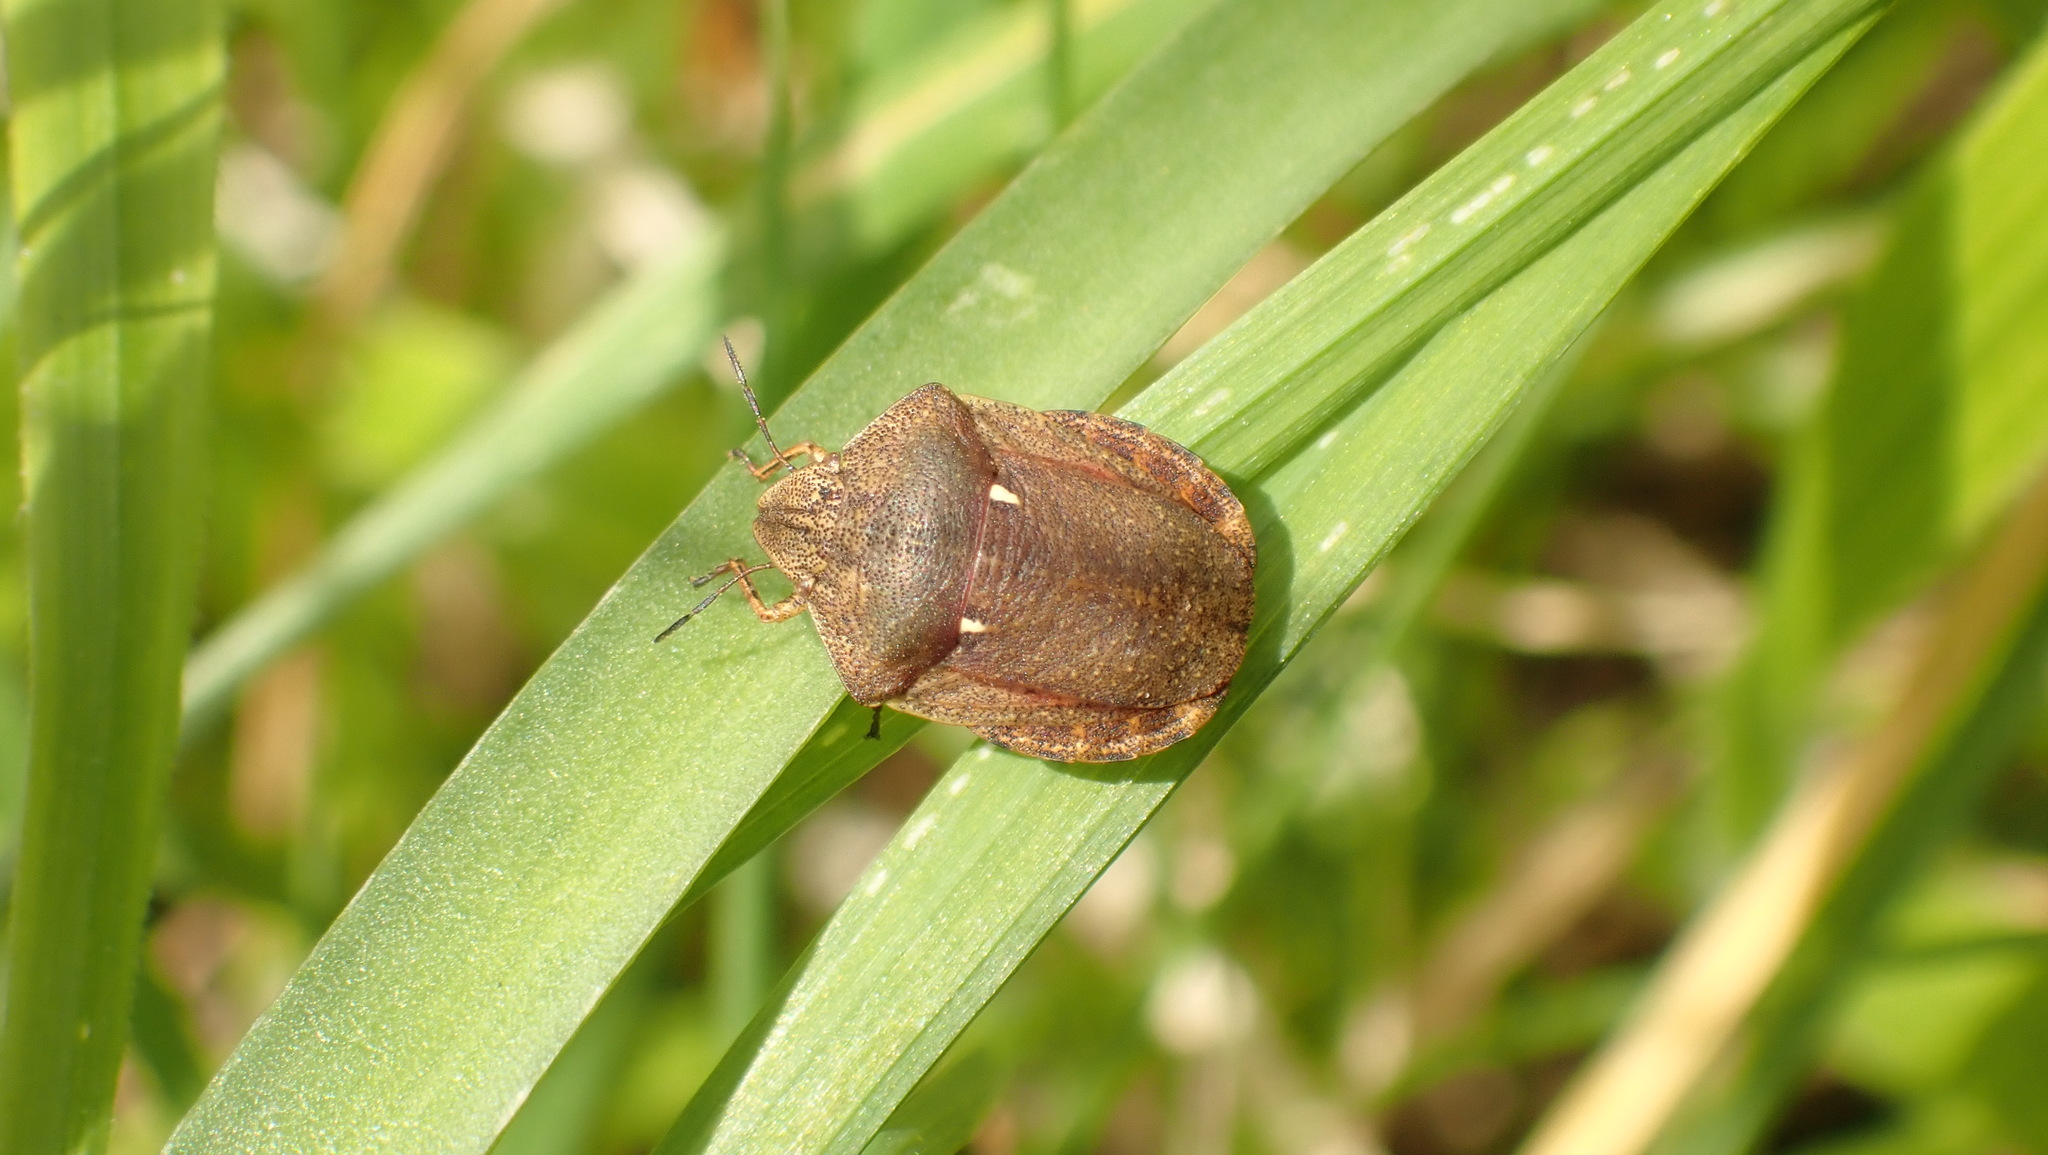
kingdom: Animalia
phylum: Arthropoda
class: Insecta
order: Hemiptera
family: Scutelleridae
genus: Eurygaster
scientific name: Eurygaster testudinaria
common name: Tortoise bug
